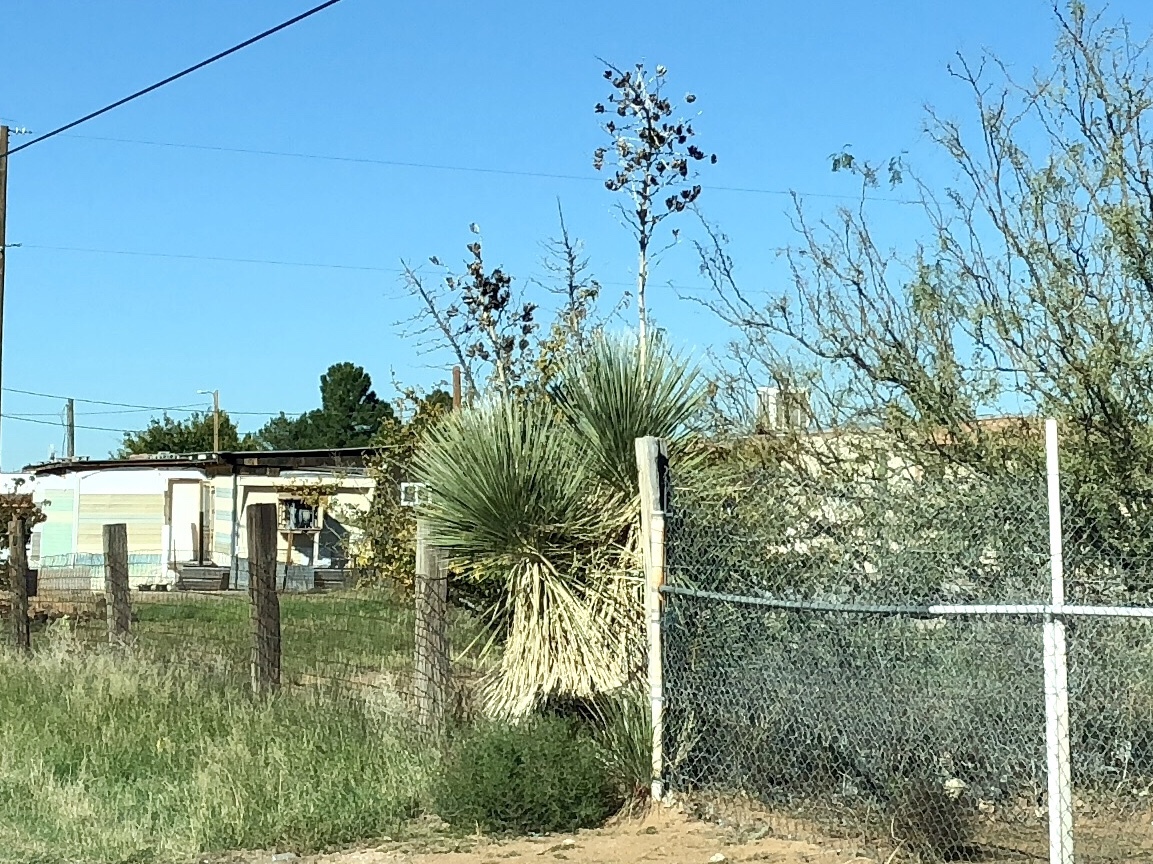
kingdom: Plantae
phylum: Tracheophyta
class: Liliopsida
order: Asparagales
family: Asparagaceae
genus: Yucca
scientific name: Yucca elata
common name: Palmella
